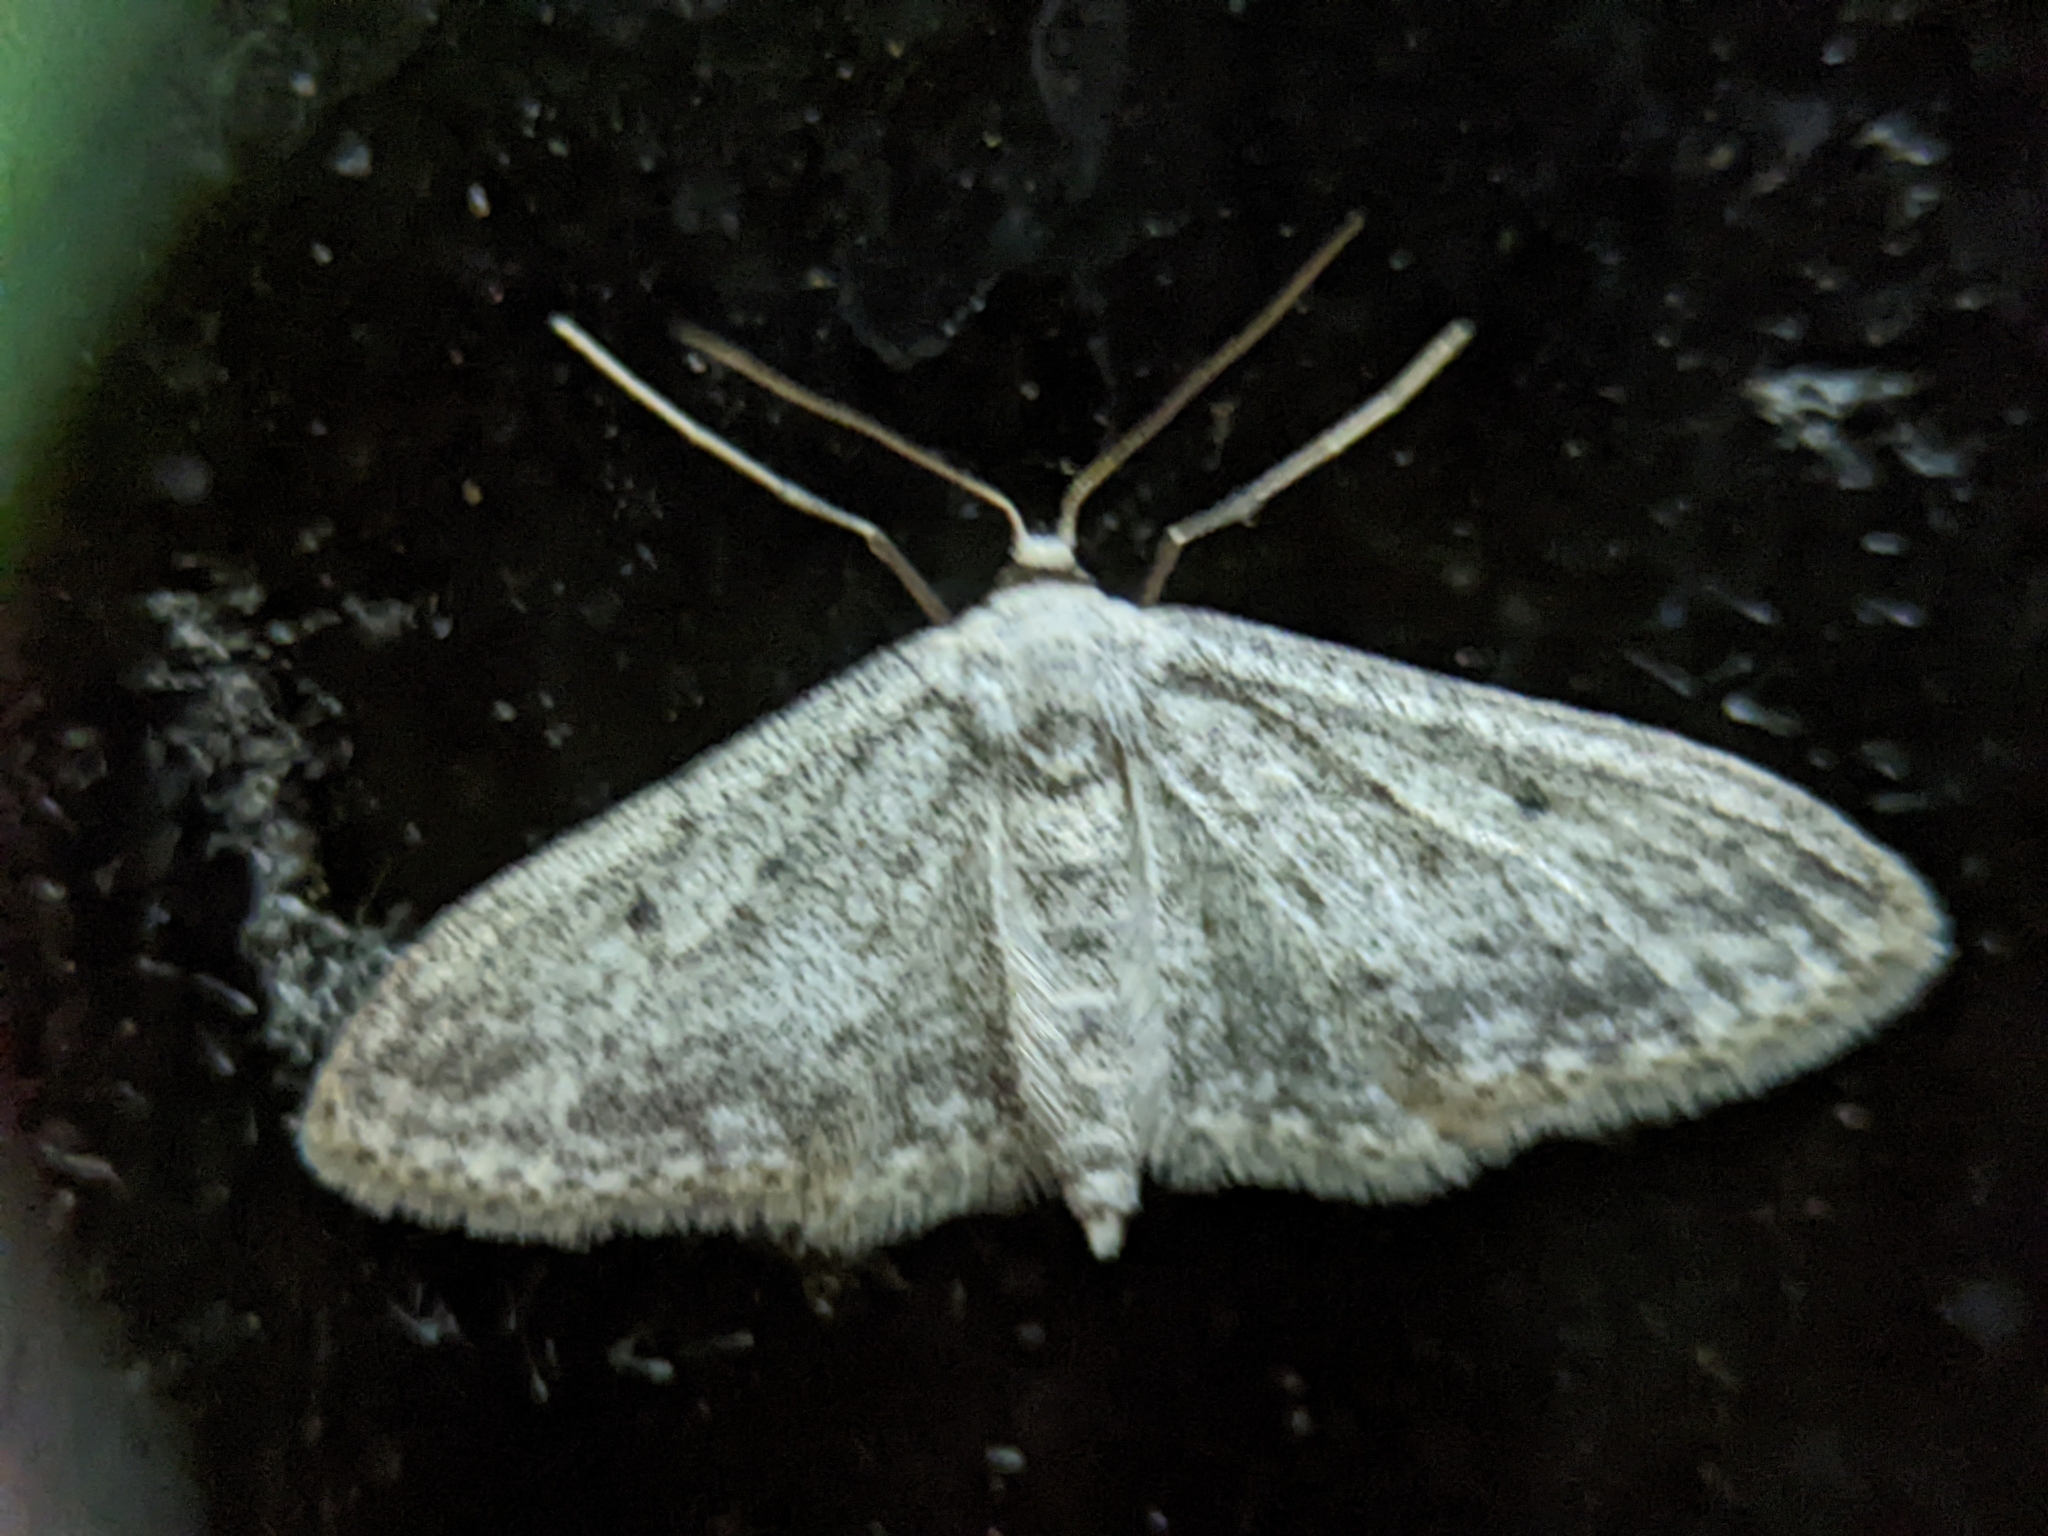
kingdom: Animalia
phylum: Arthropoda
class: Insecta
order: Lepidoptera
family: Geometridae
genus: Idaea
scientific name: Idaea seriata
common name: Small dusty wave
